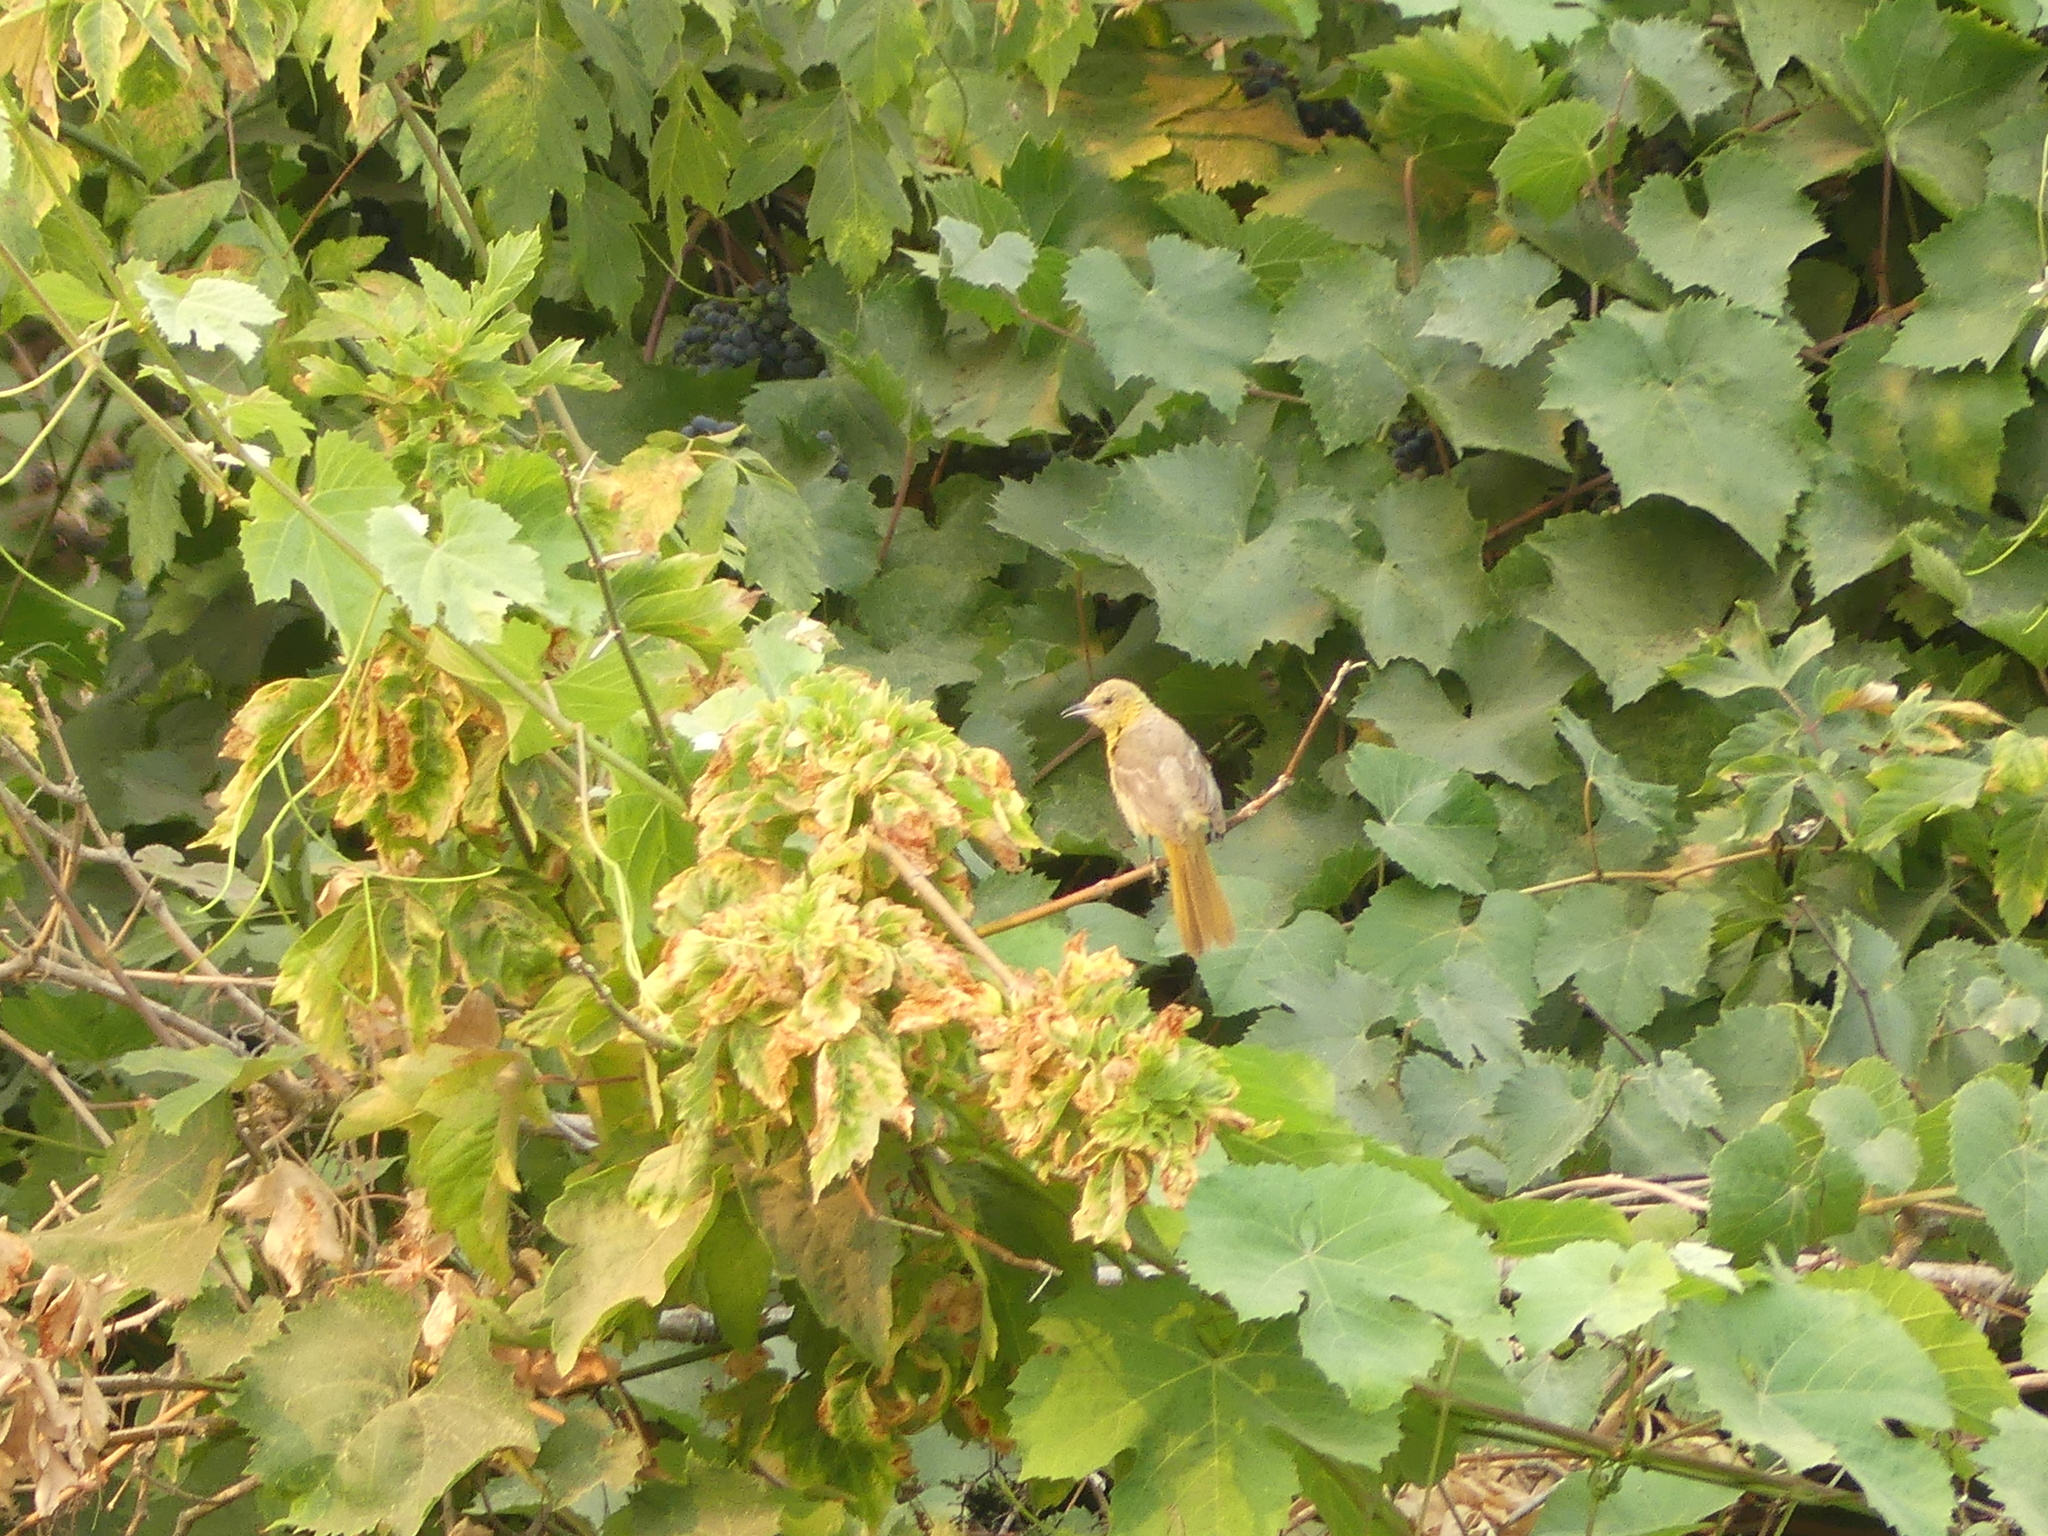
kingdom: Animalia
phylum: Chordata
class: Aves
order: Passeriformes
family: Icteridae
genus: Icterus
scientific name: Icterus bullockii
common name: Bullock's oriole
